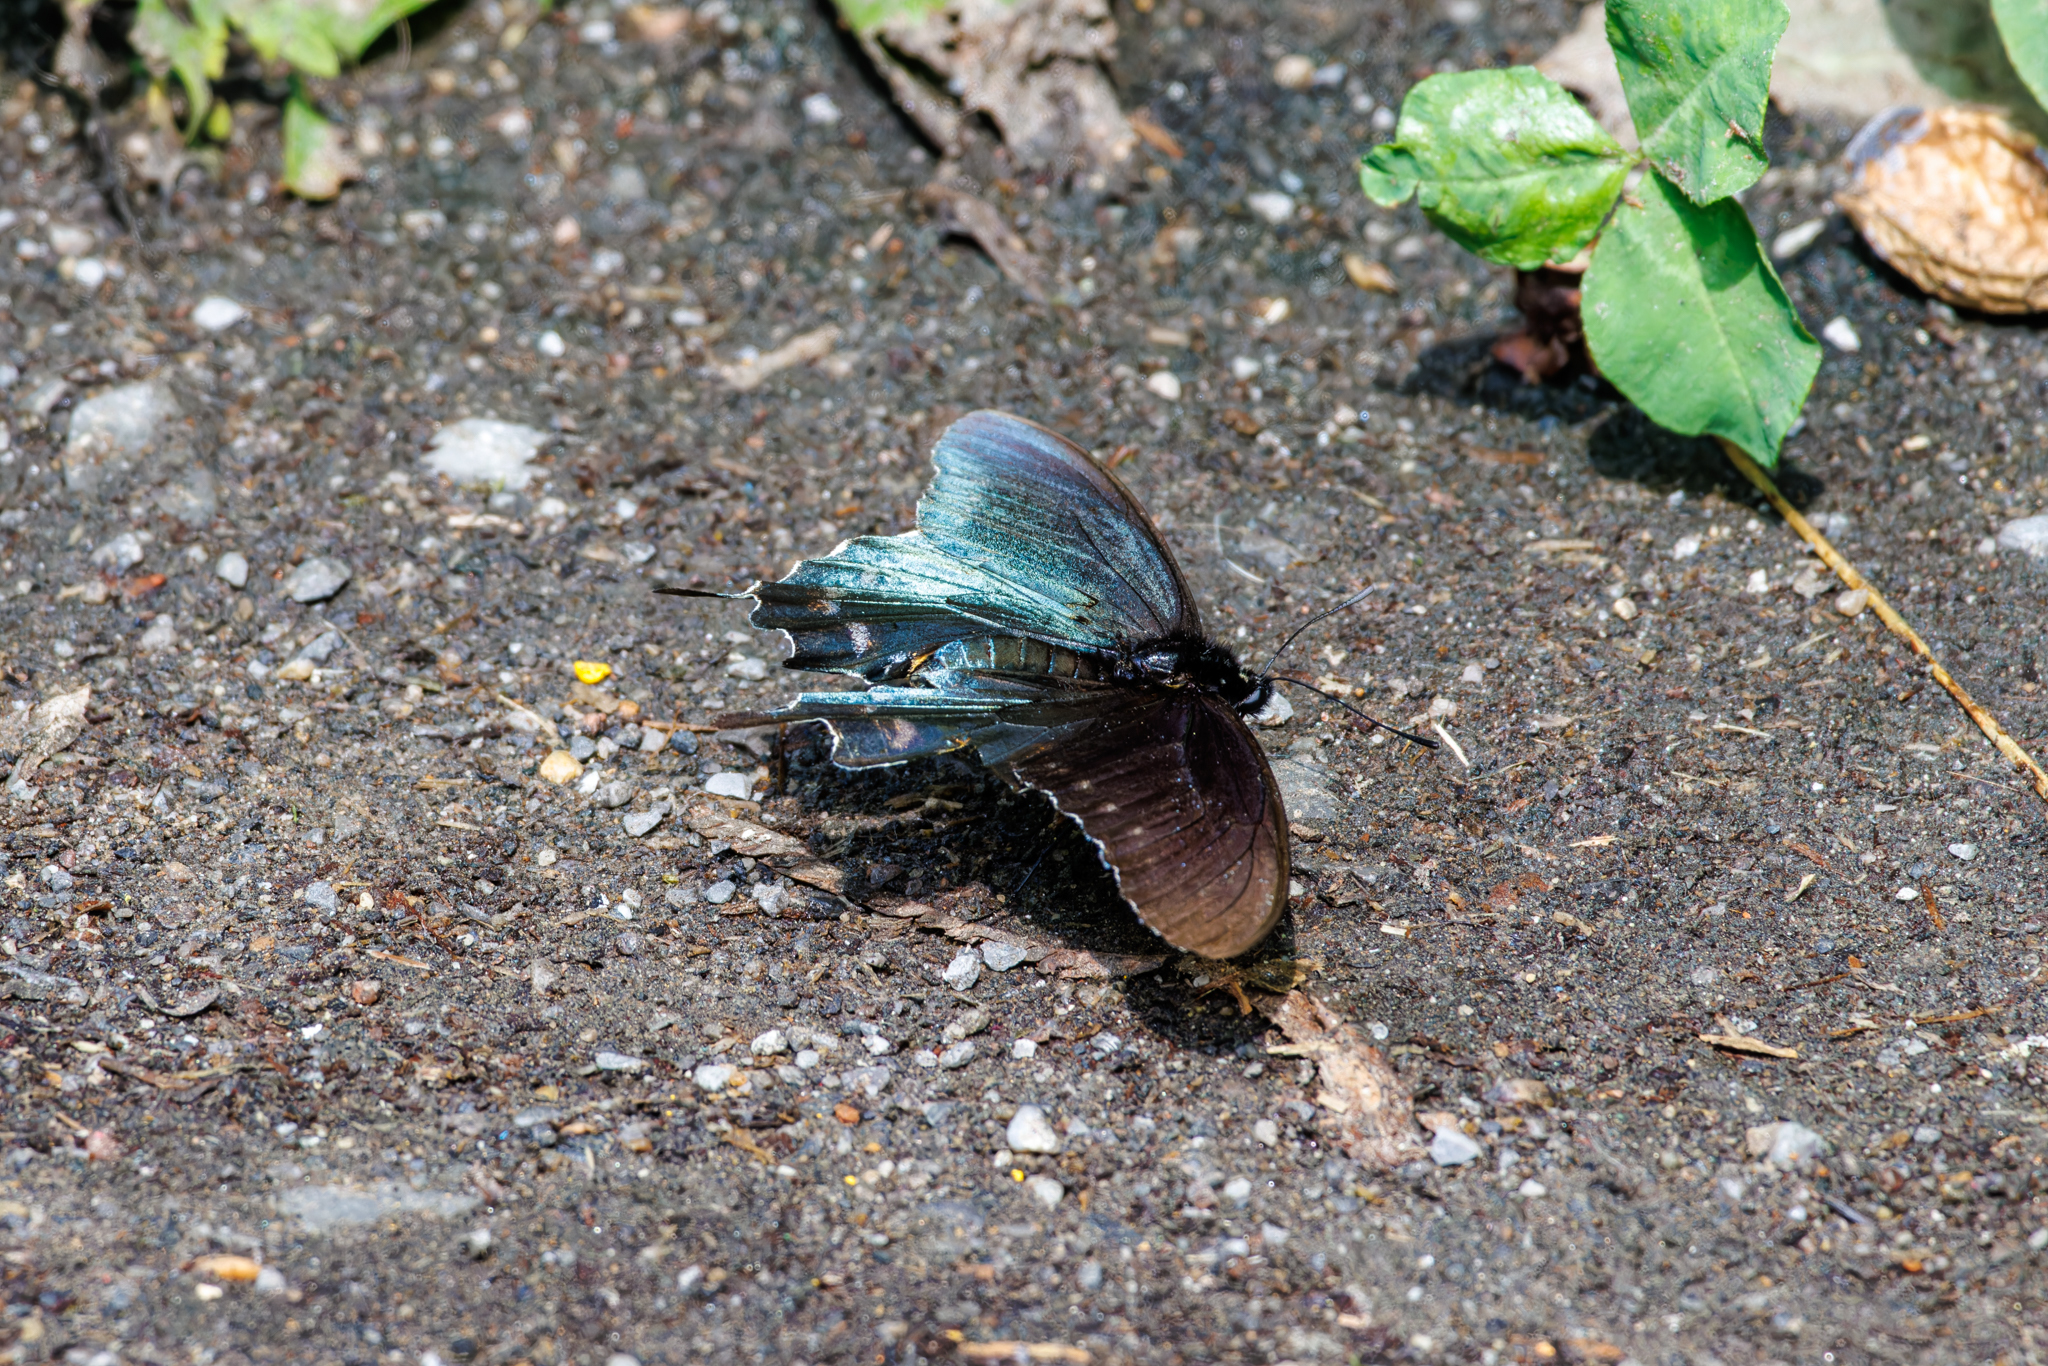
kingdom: Animalia
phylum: Arthropoda
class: Insecta
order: Lepidoptera
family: Papilionidae
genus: Battus
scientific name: Battus philenor
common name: Pipevine swallowtail
